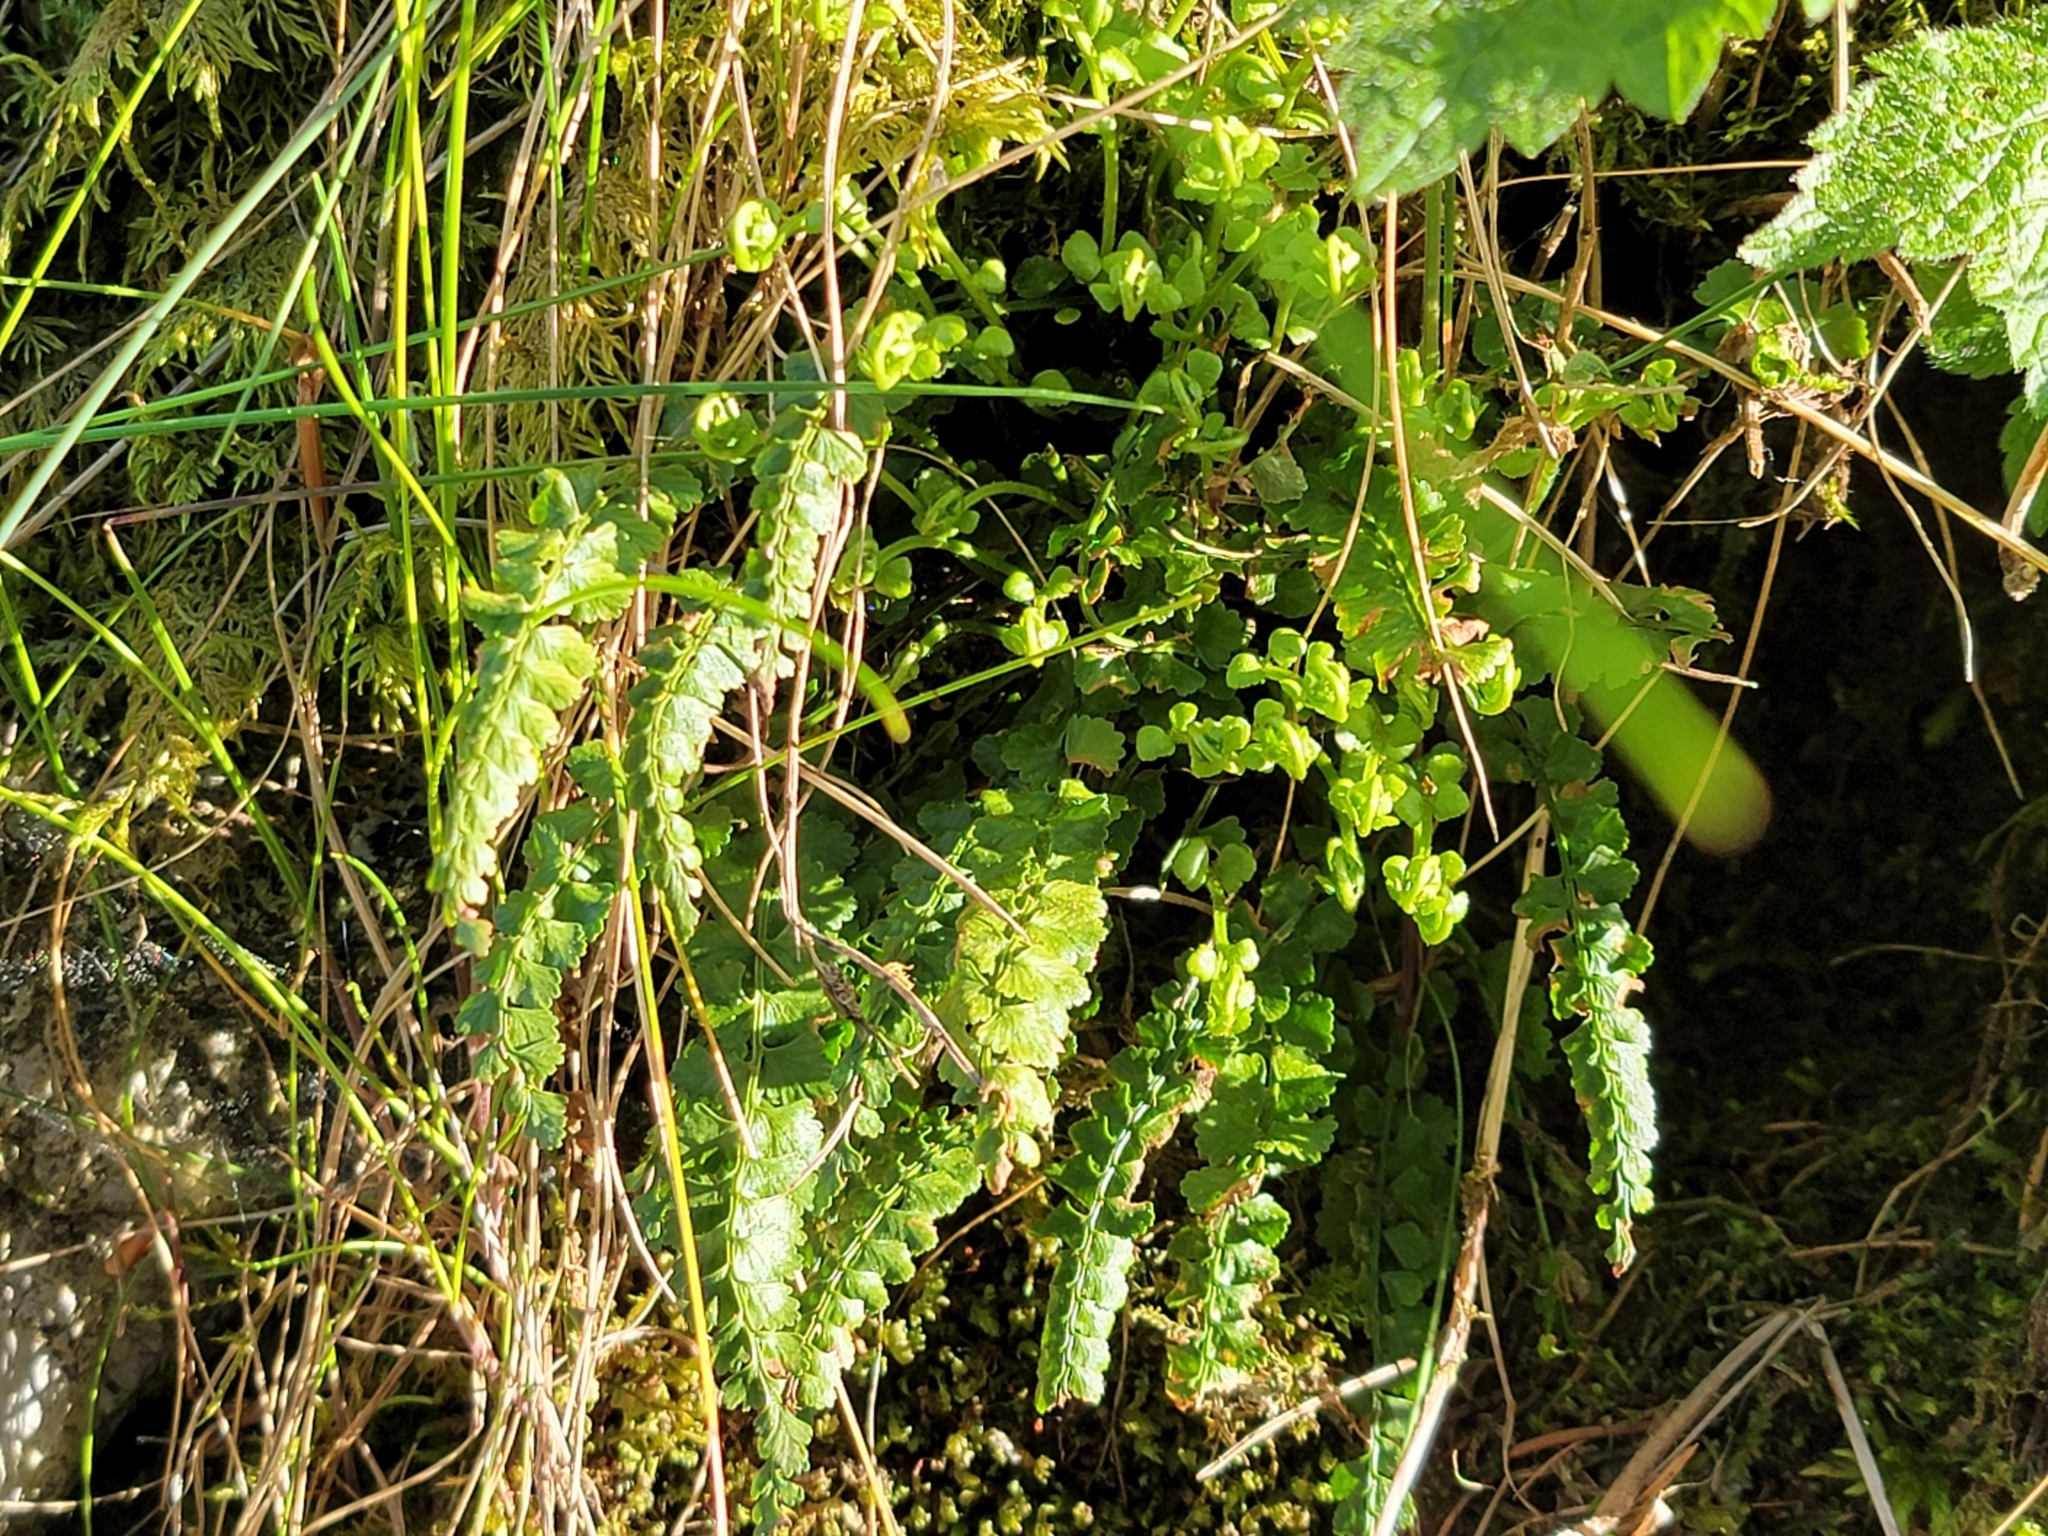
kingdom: Plantae
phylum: Tracheophyta
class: Polypodiopsida
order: Polypodiales
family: Aspleniaceae
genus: Asplenium
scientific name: Asplenium viride
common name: Green spleenwort
